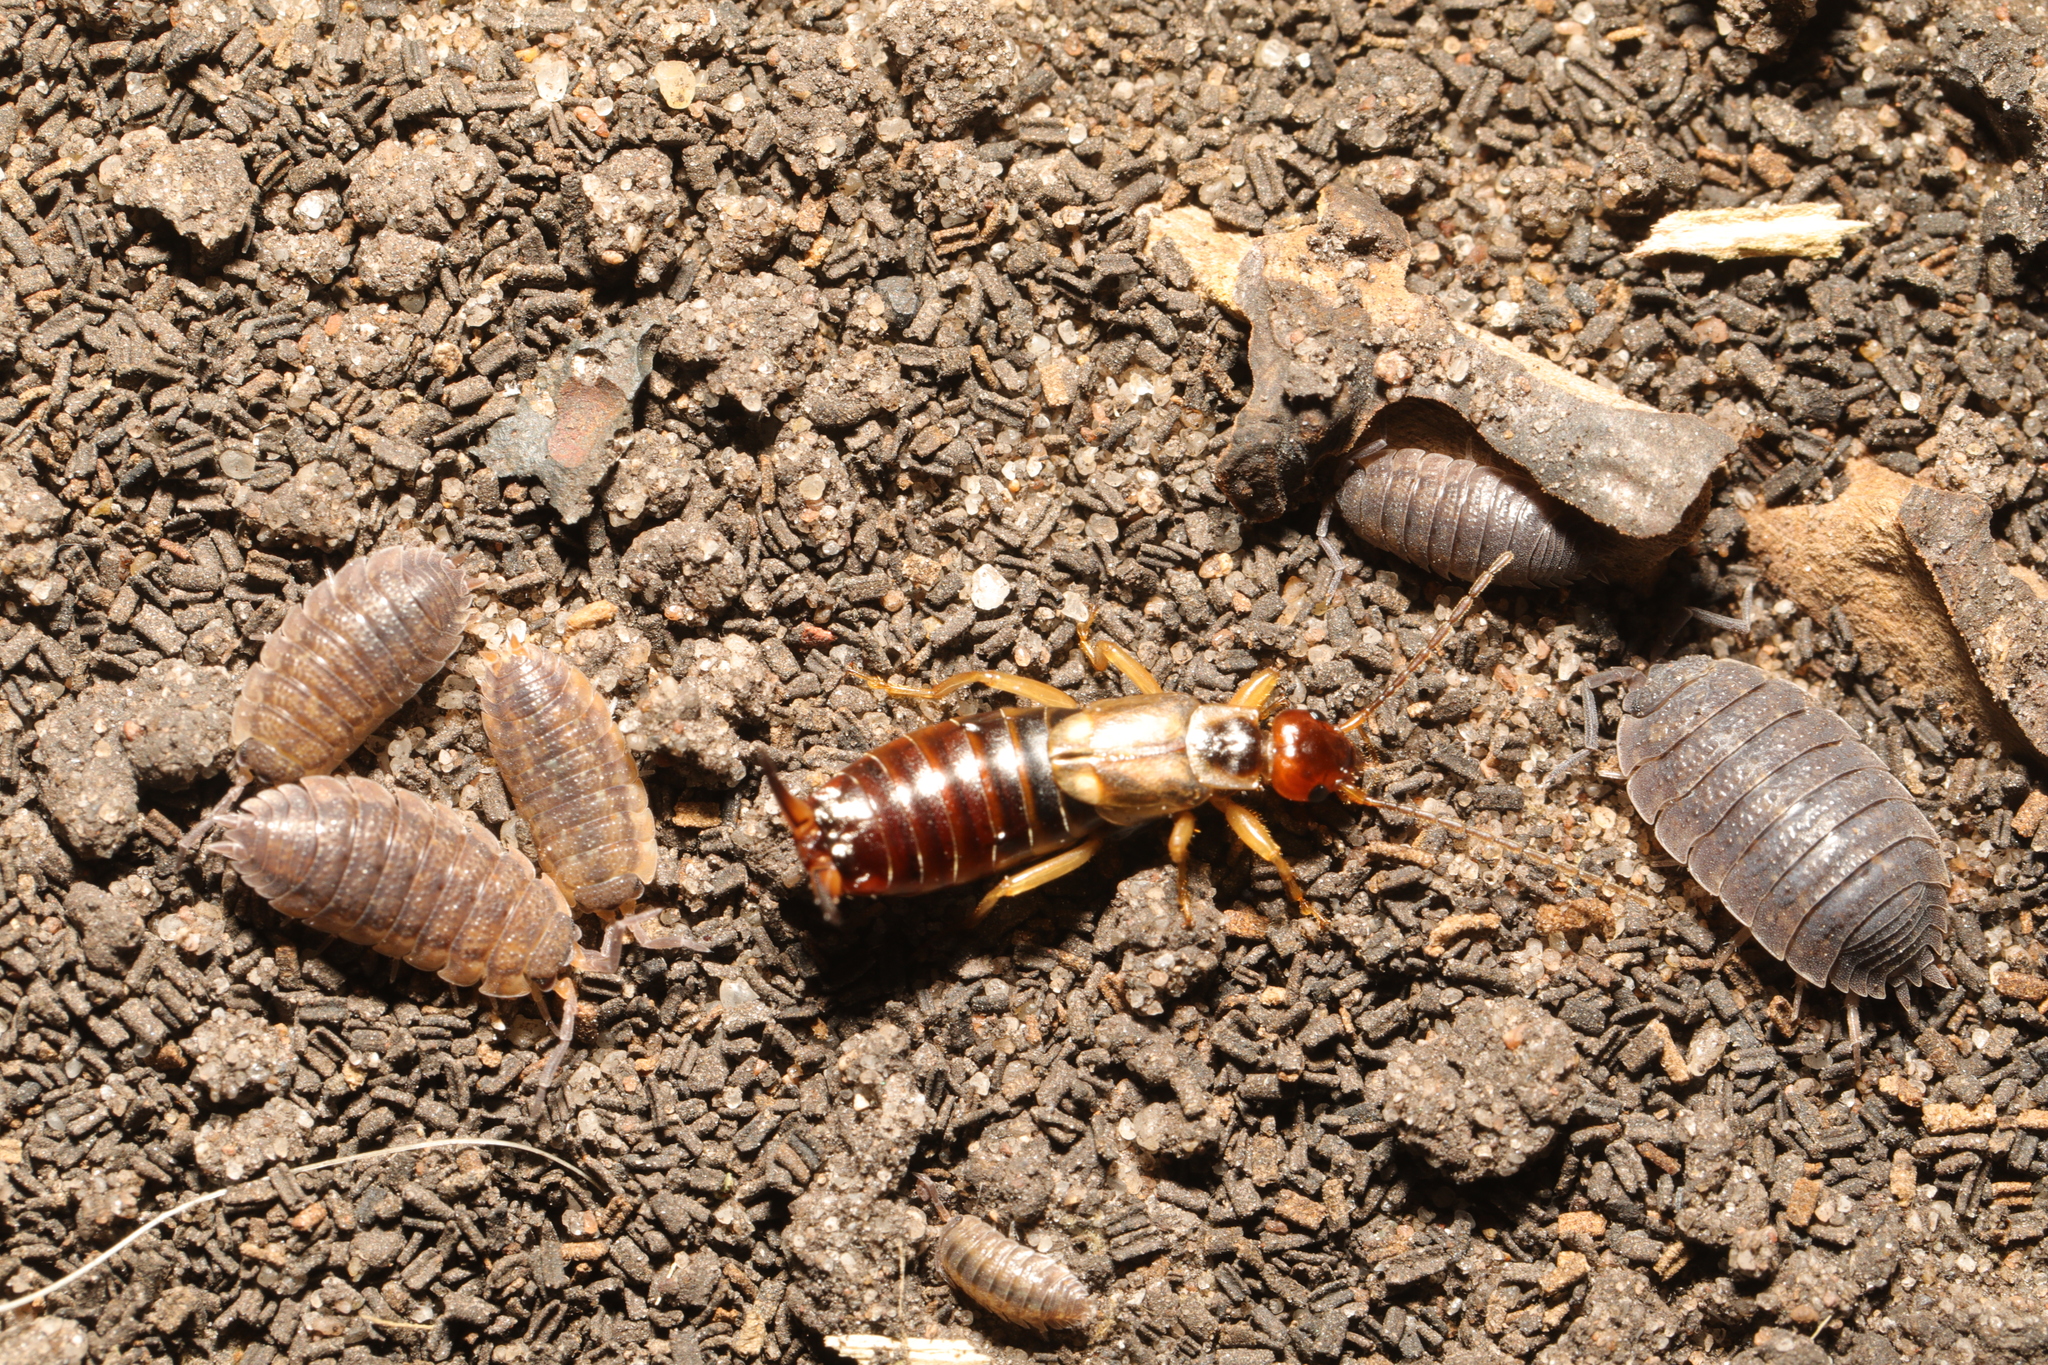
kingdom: Animalia
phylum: Arthropoda
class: Insecta
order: Dermaptera
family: Forficulidae
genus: Forficula
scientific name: Forficula
